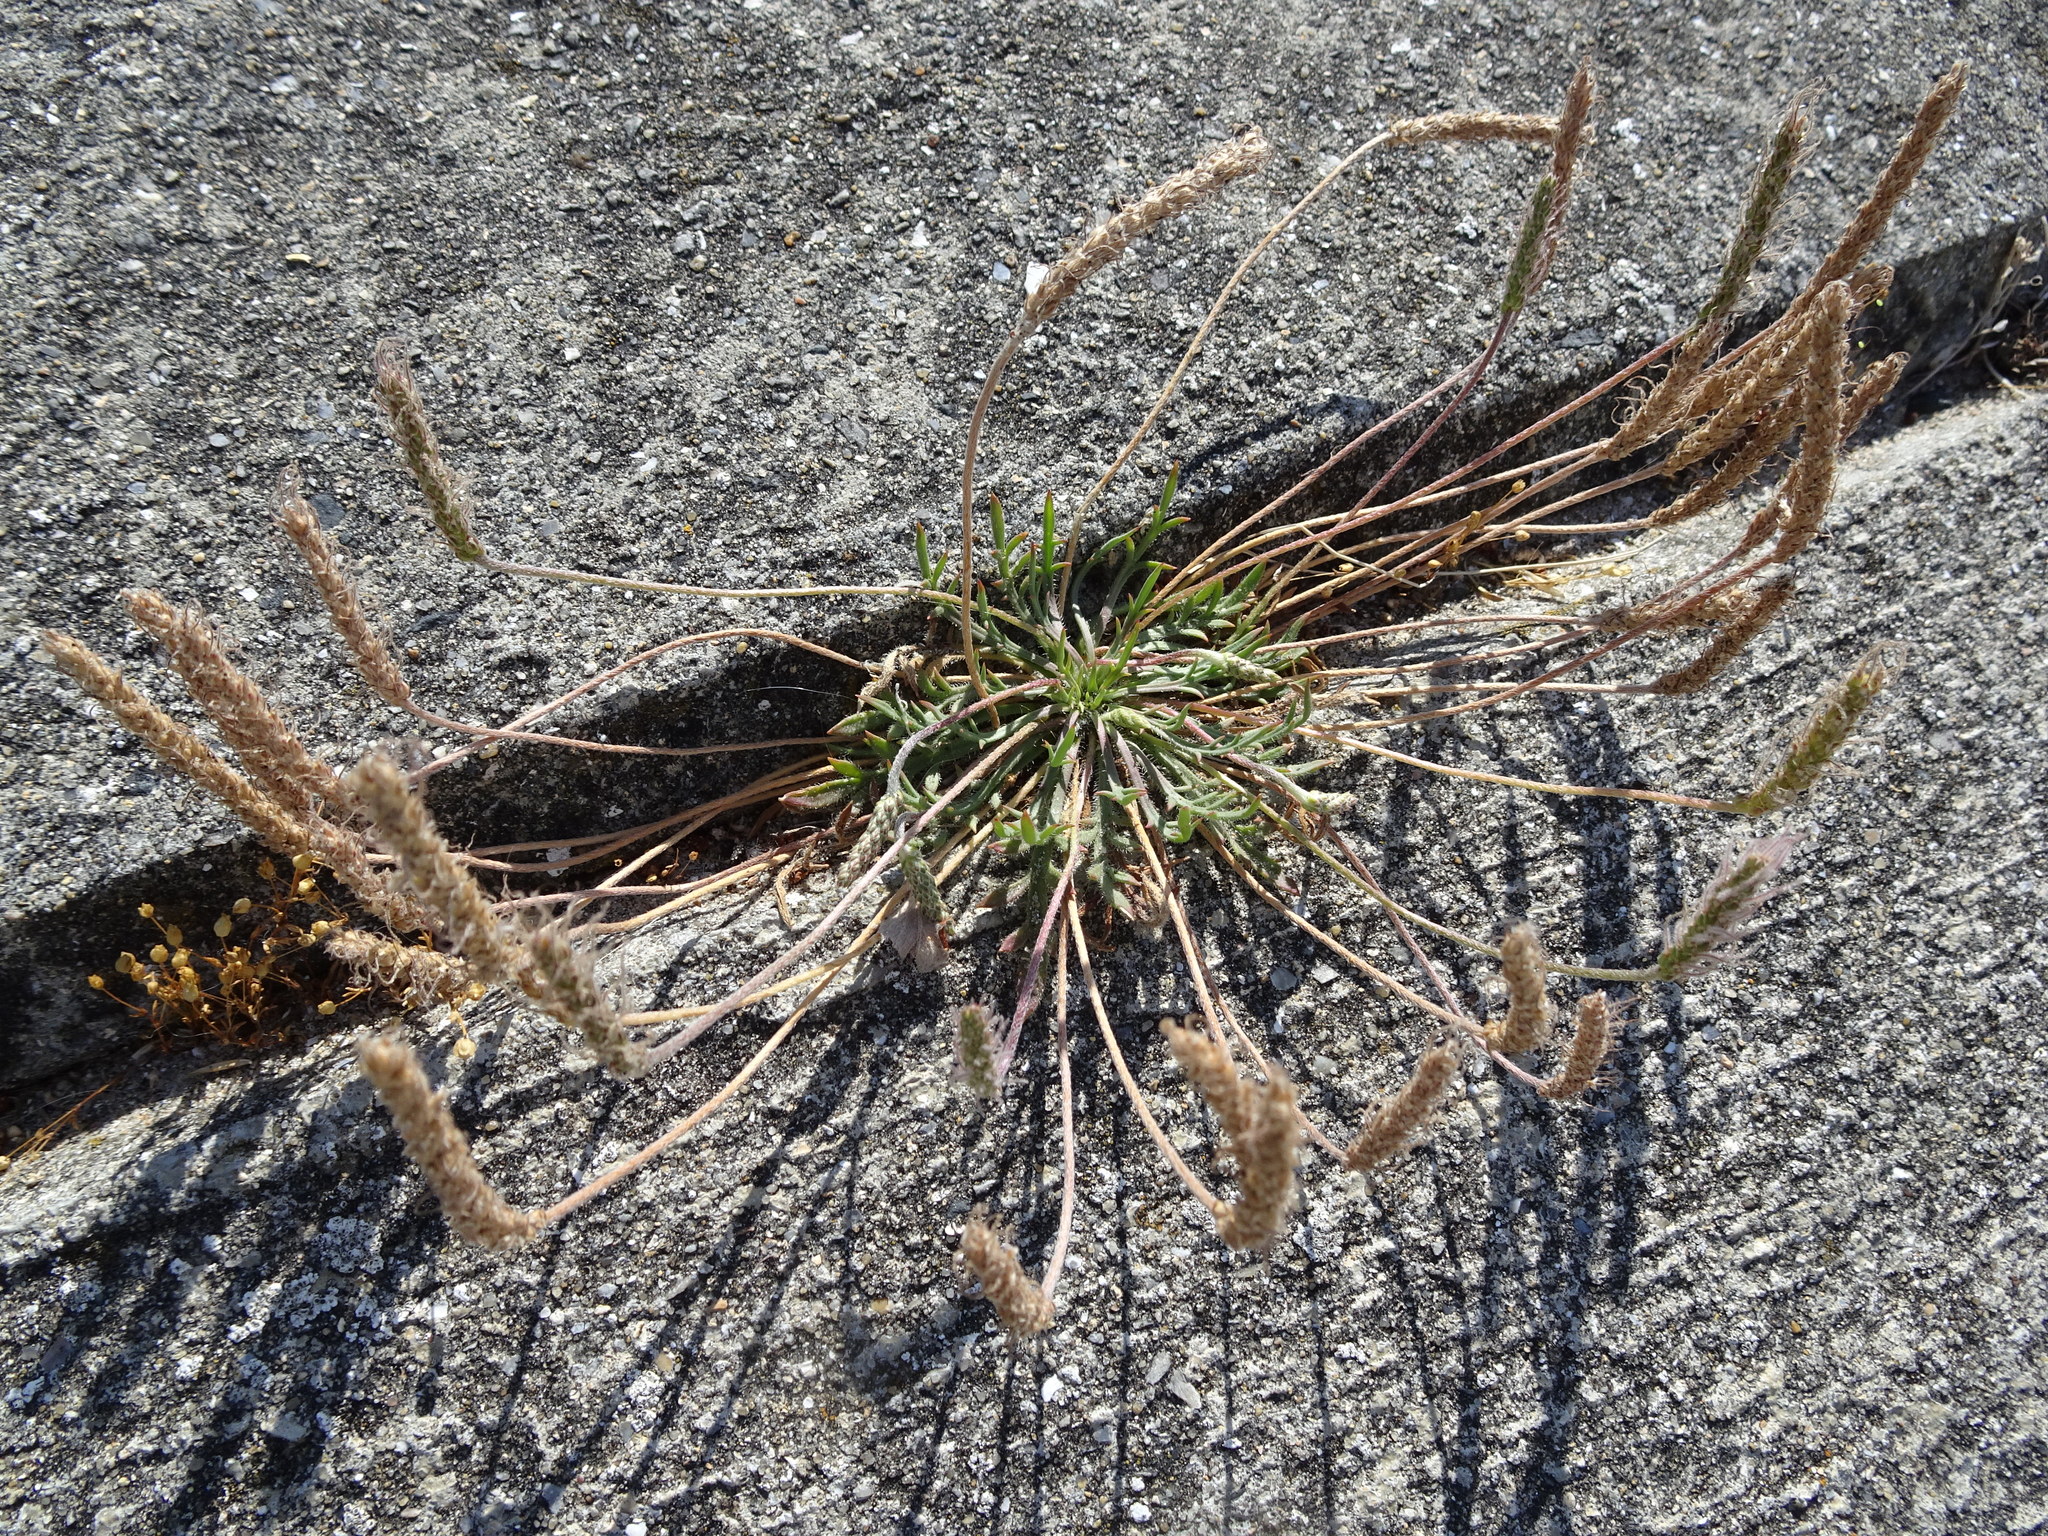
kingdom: Plantae
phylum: Tracheophyta
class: Magnoliopsida
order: Lamiales
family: Plantaginaceae
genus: Plantago
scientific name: Plantago coronopus
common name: Buck's-horn plantain
